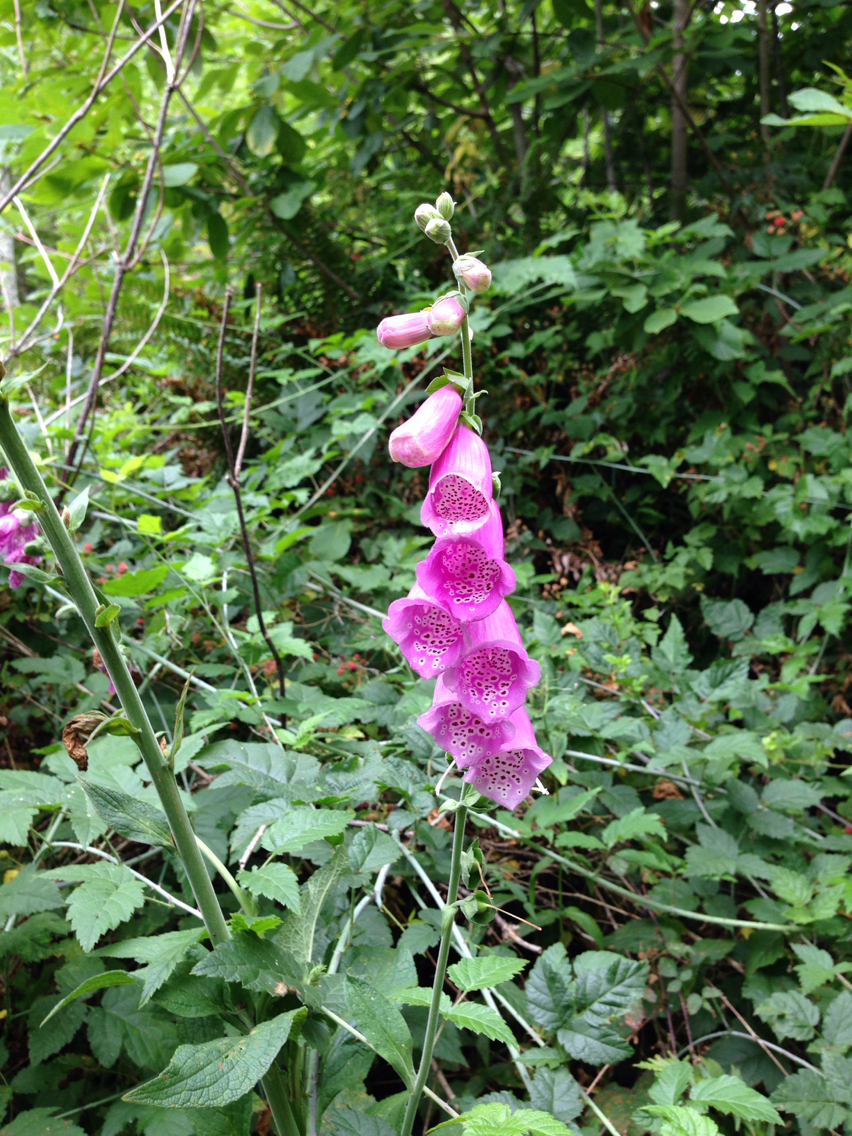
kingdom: Plantae
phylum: Tracheophyta
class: Magnoliopsida
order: Lamiales
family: Plantaginaceae
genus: Digitalis
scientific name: Digitalis purpurea
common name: Foxglove
